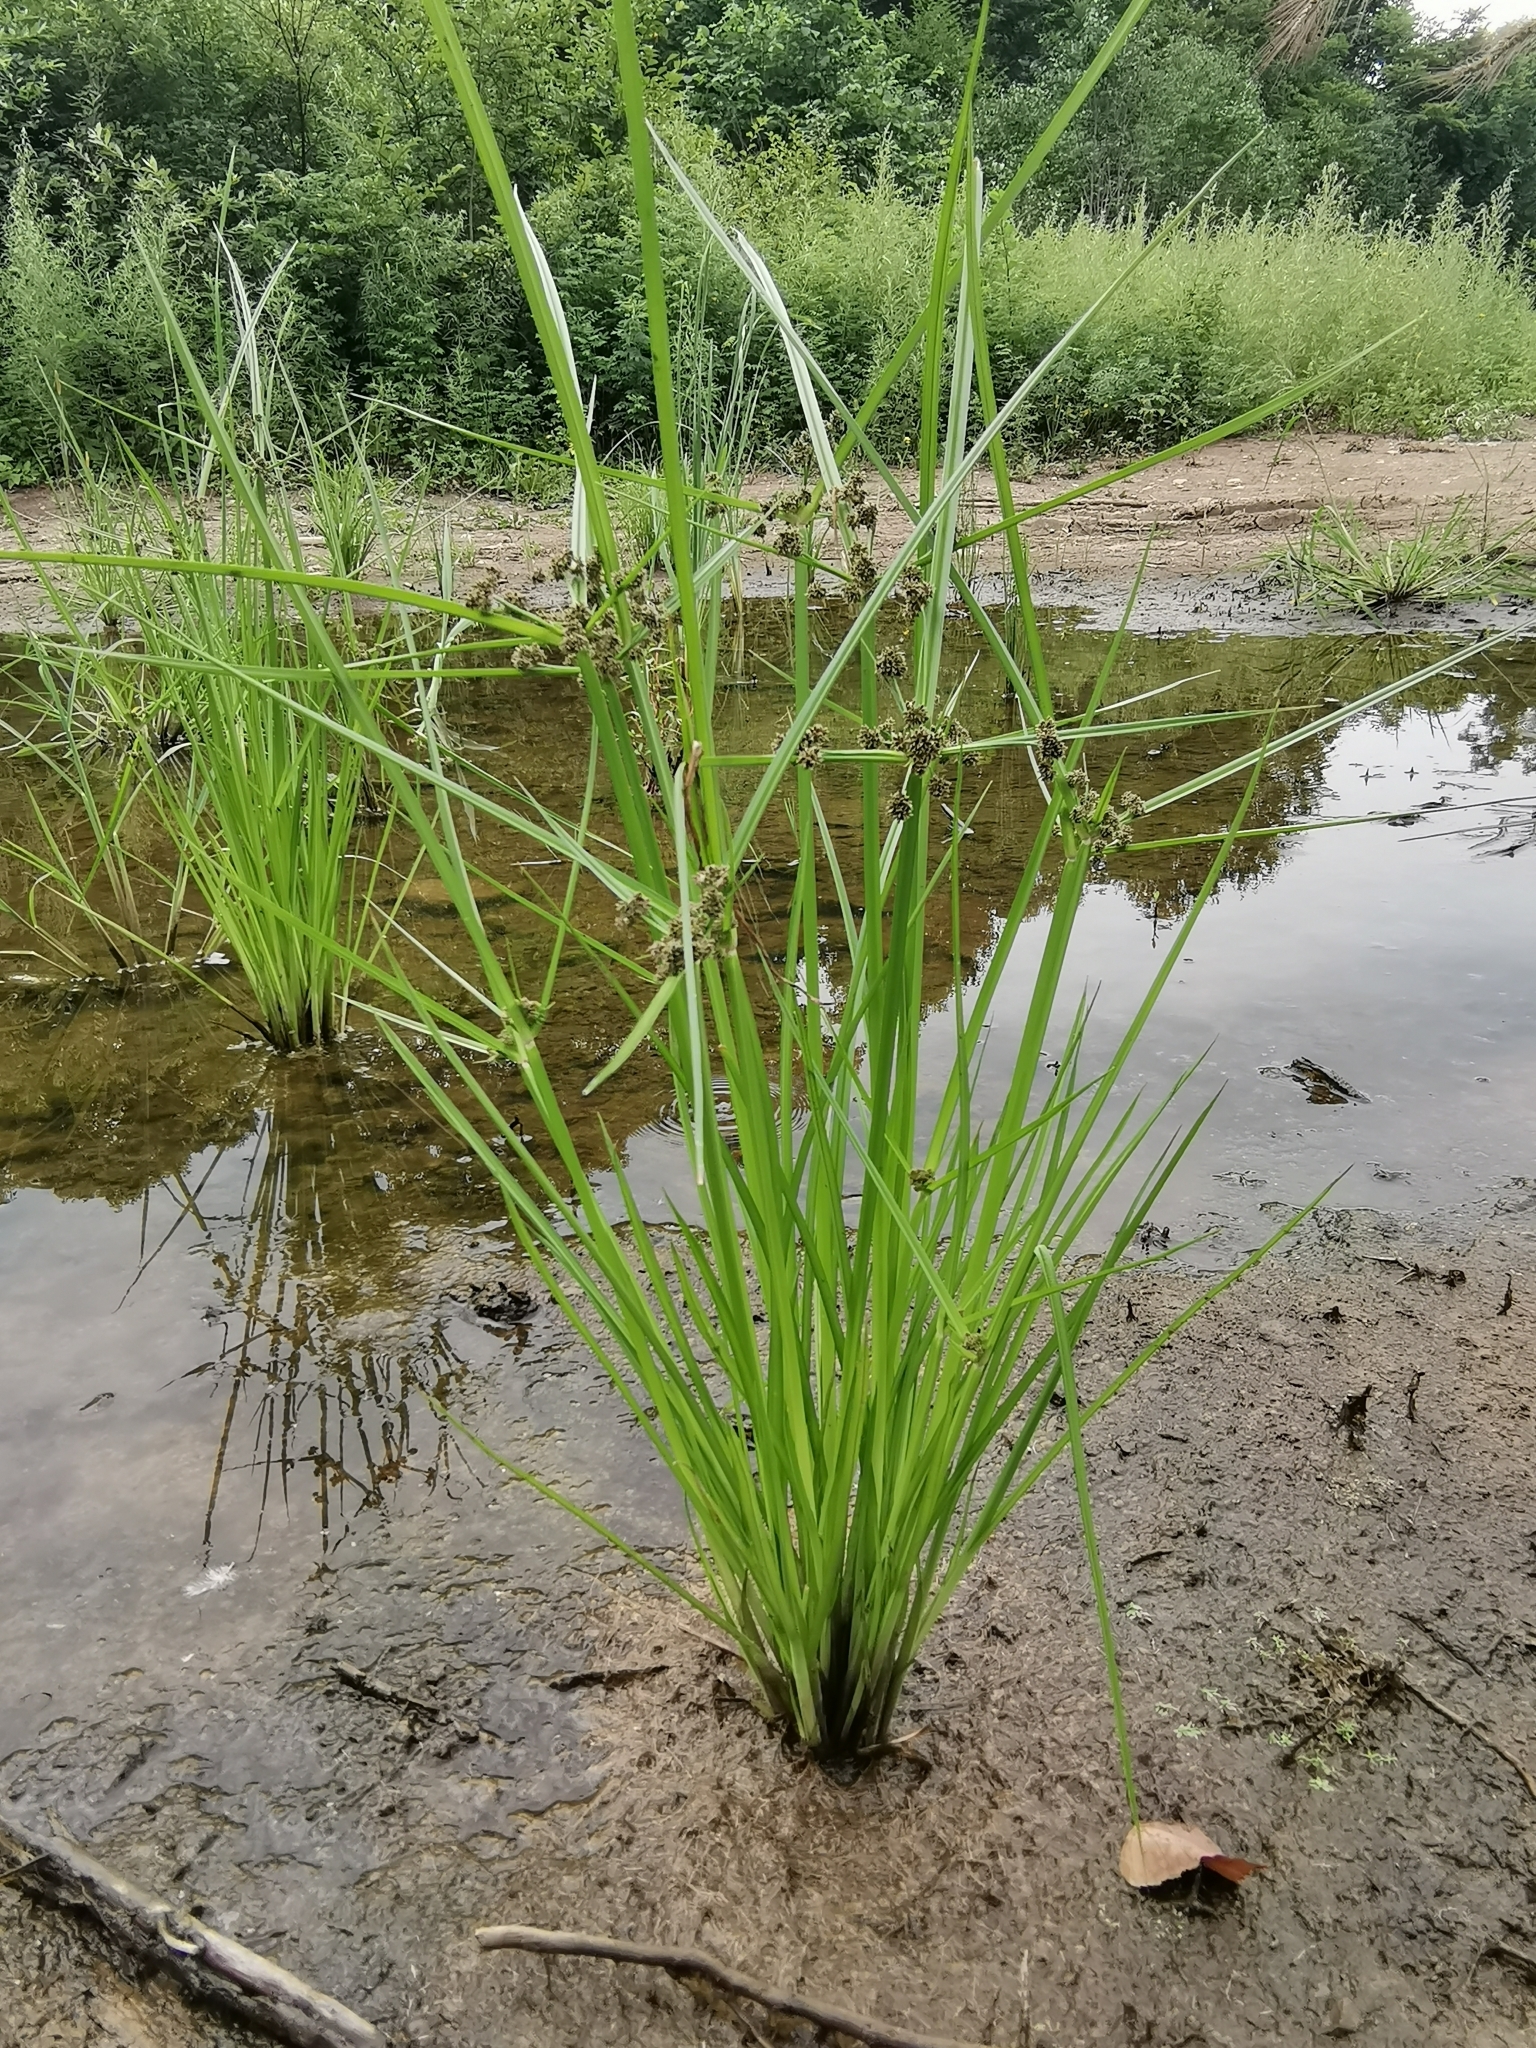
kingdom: Plantae
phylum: Tracheophyta
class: Liliopsida
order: Poales
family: Cyperaceae
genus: Cyperus
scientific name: Cyperus difformis
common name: Variable flatsedge
